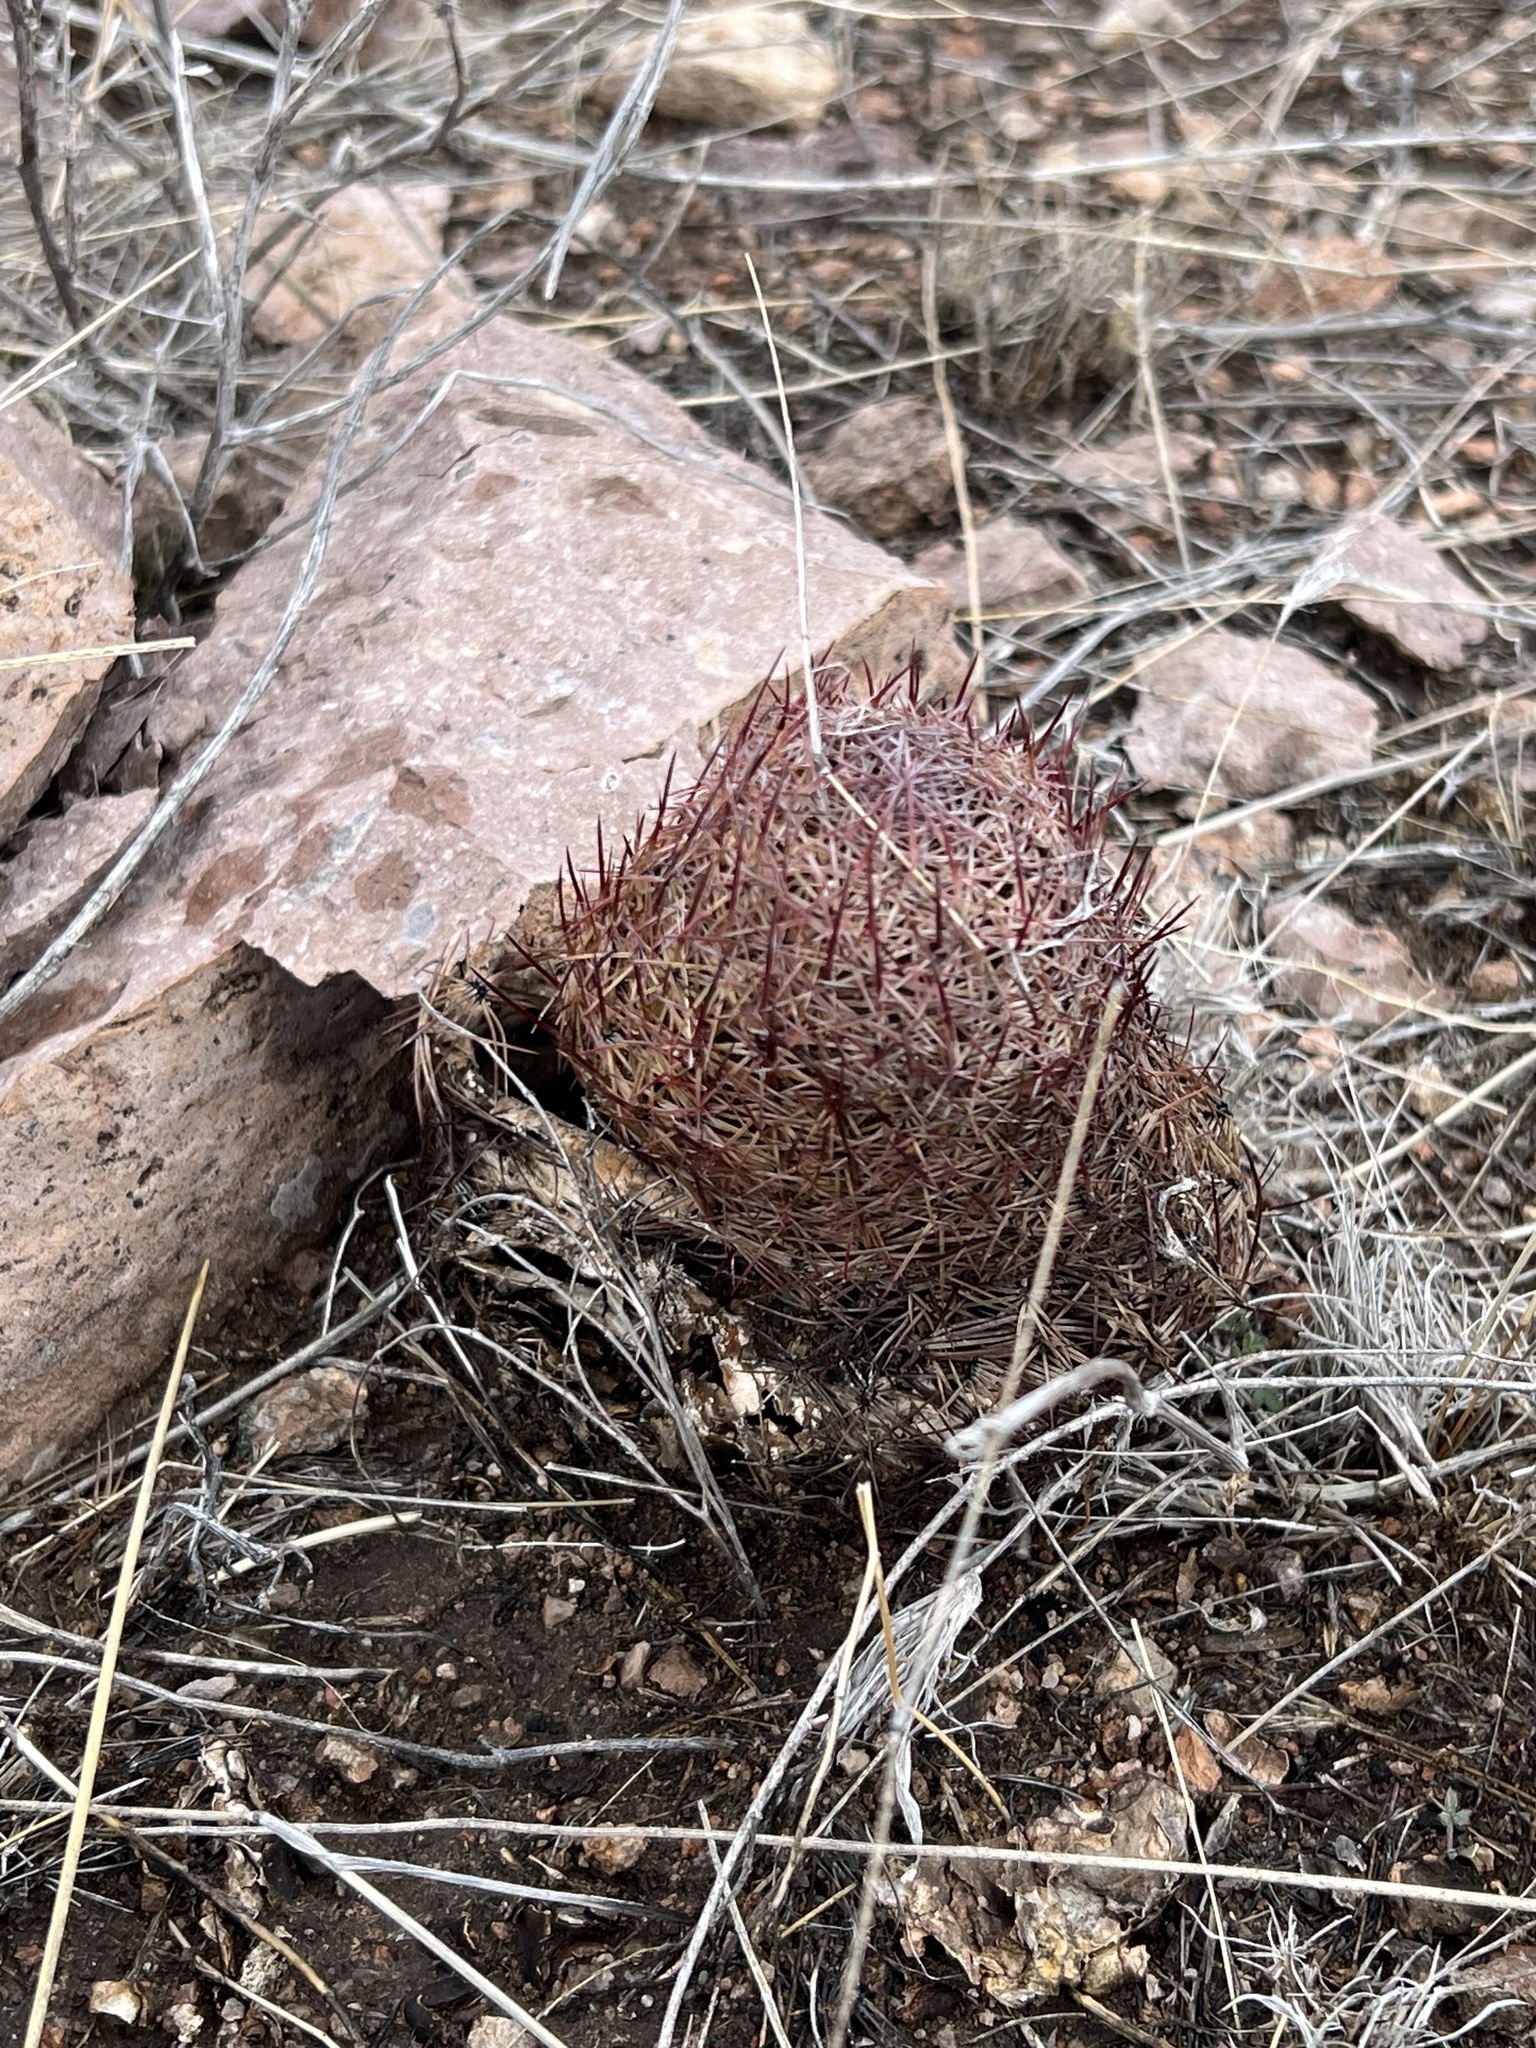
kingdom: Plantae
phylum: Tracheophyta
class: Magnoliopsida
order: Caryophyllales
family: Cactaceae
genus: Sclerocactus
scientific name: Sclerocactus johnsonii
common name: Eight-spine fishhook cactus
